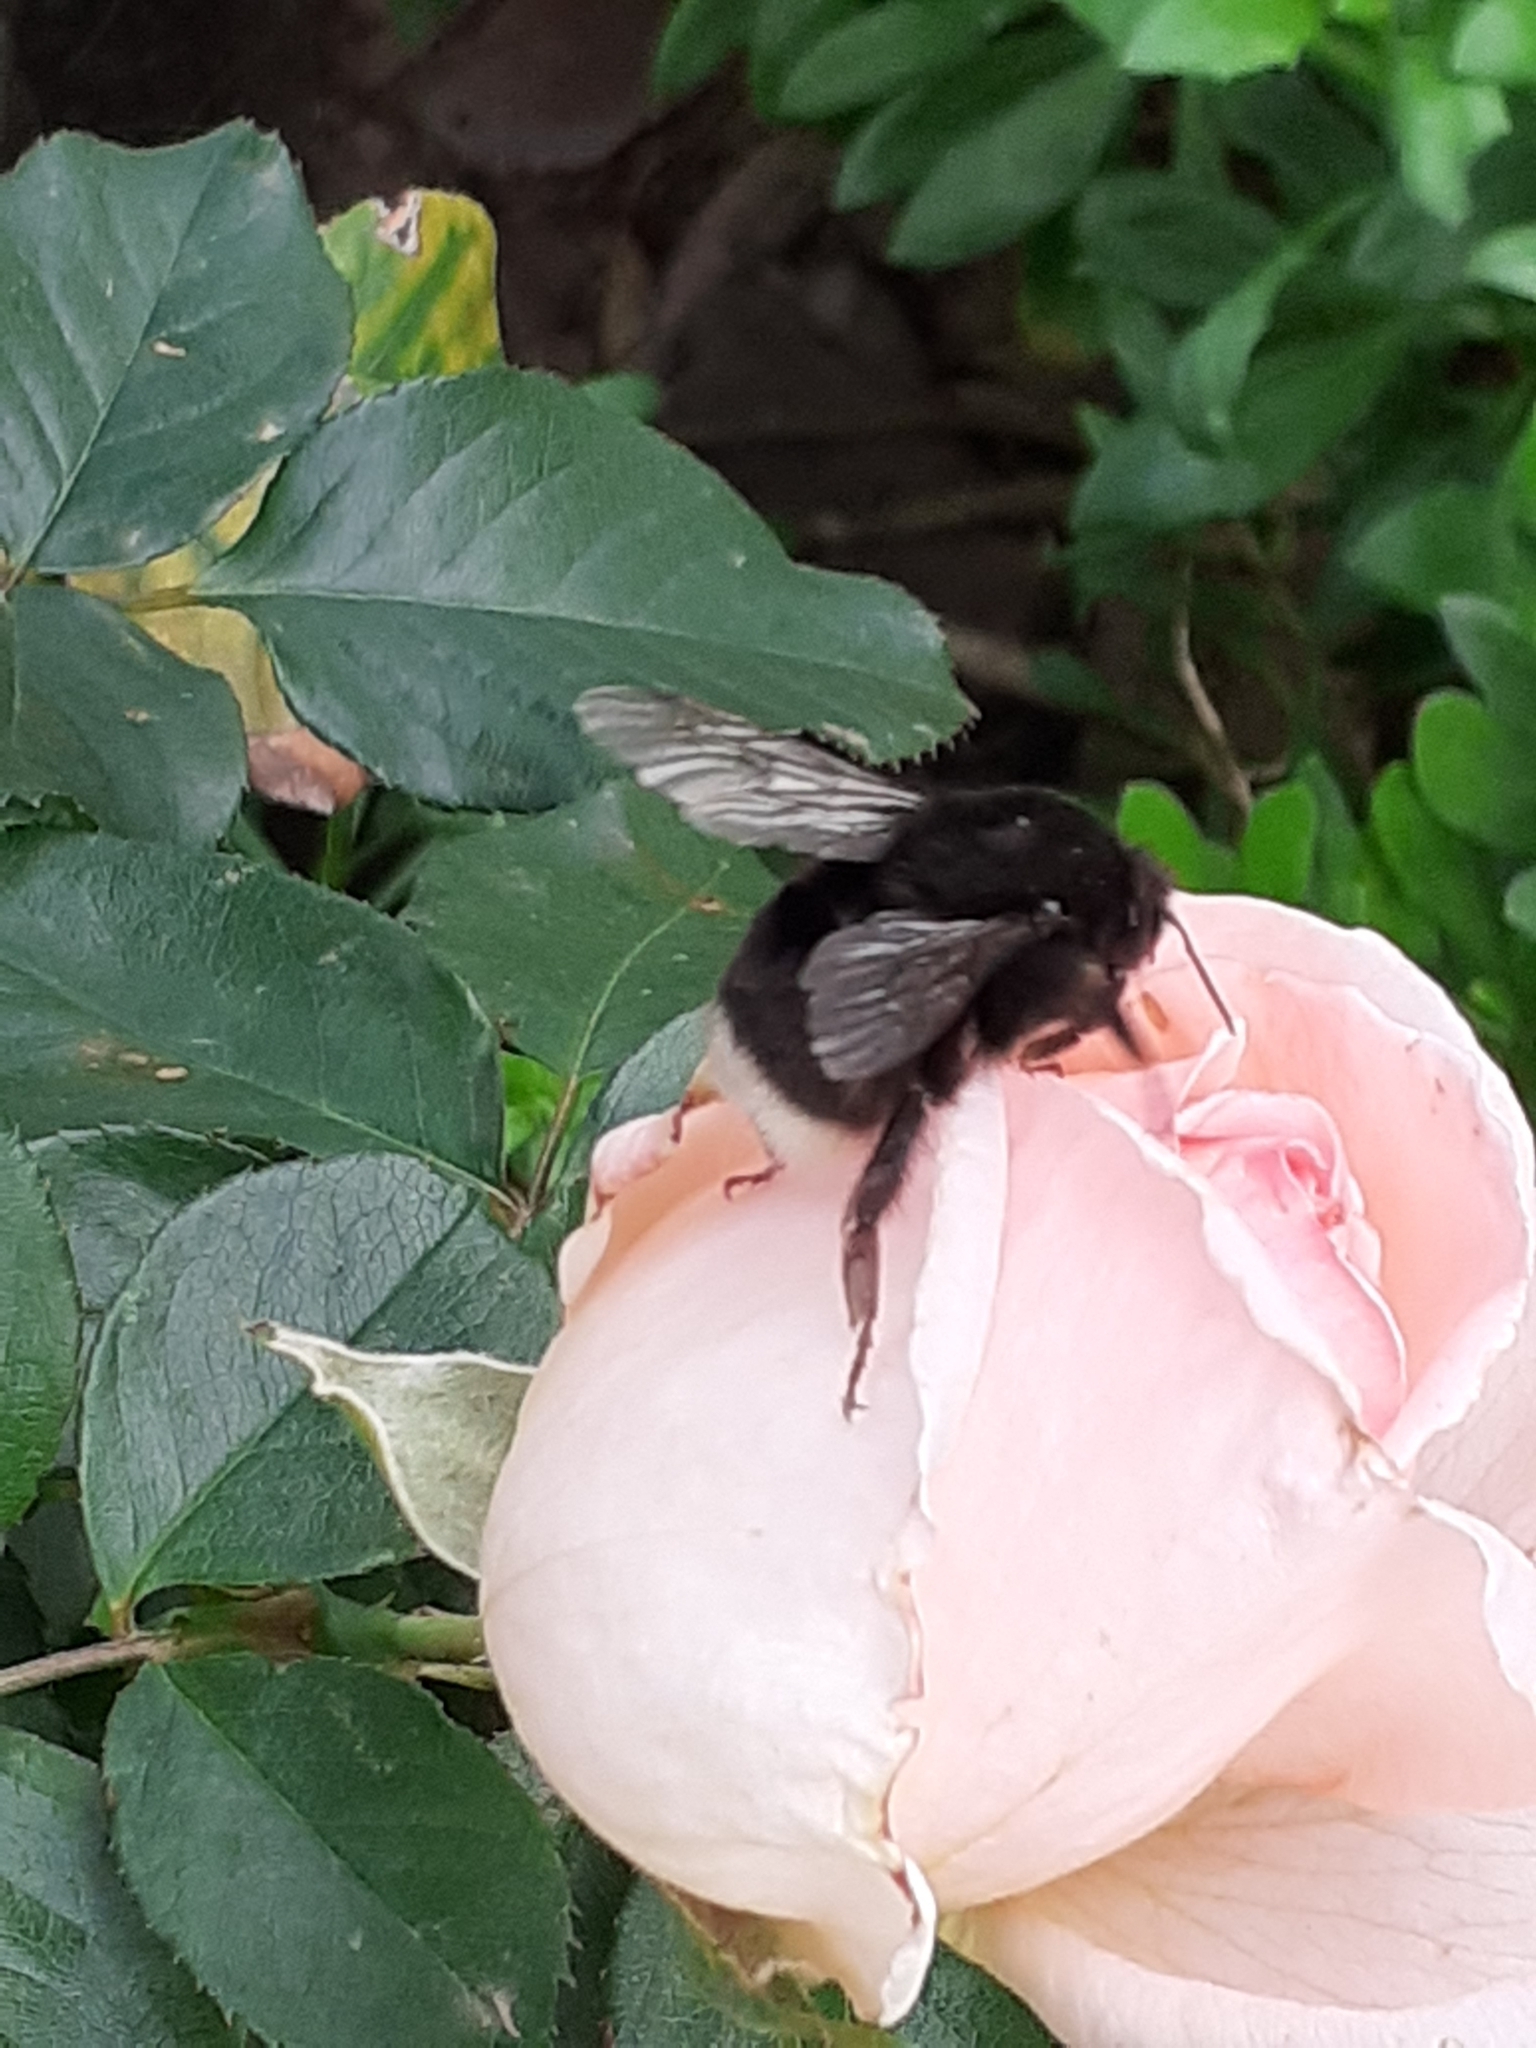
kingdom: Animalia
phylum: Arthropoda
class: Insecta
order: Hymenoptera
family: Apidae
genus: Bombus
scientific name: Bombus terrestris
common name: Buff-tailed bumblebee
